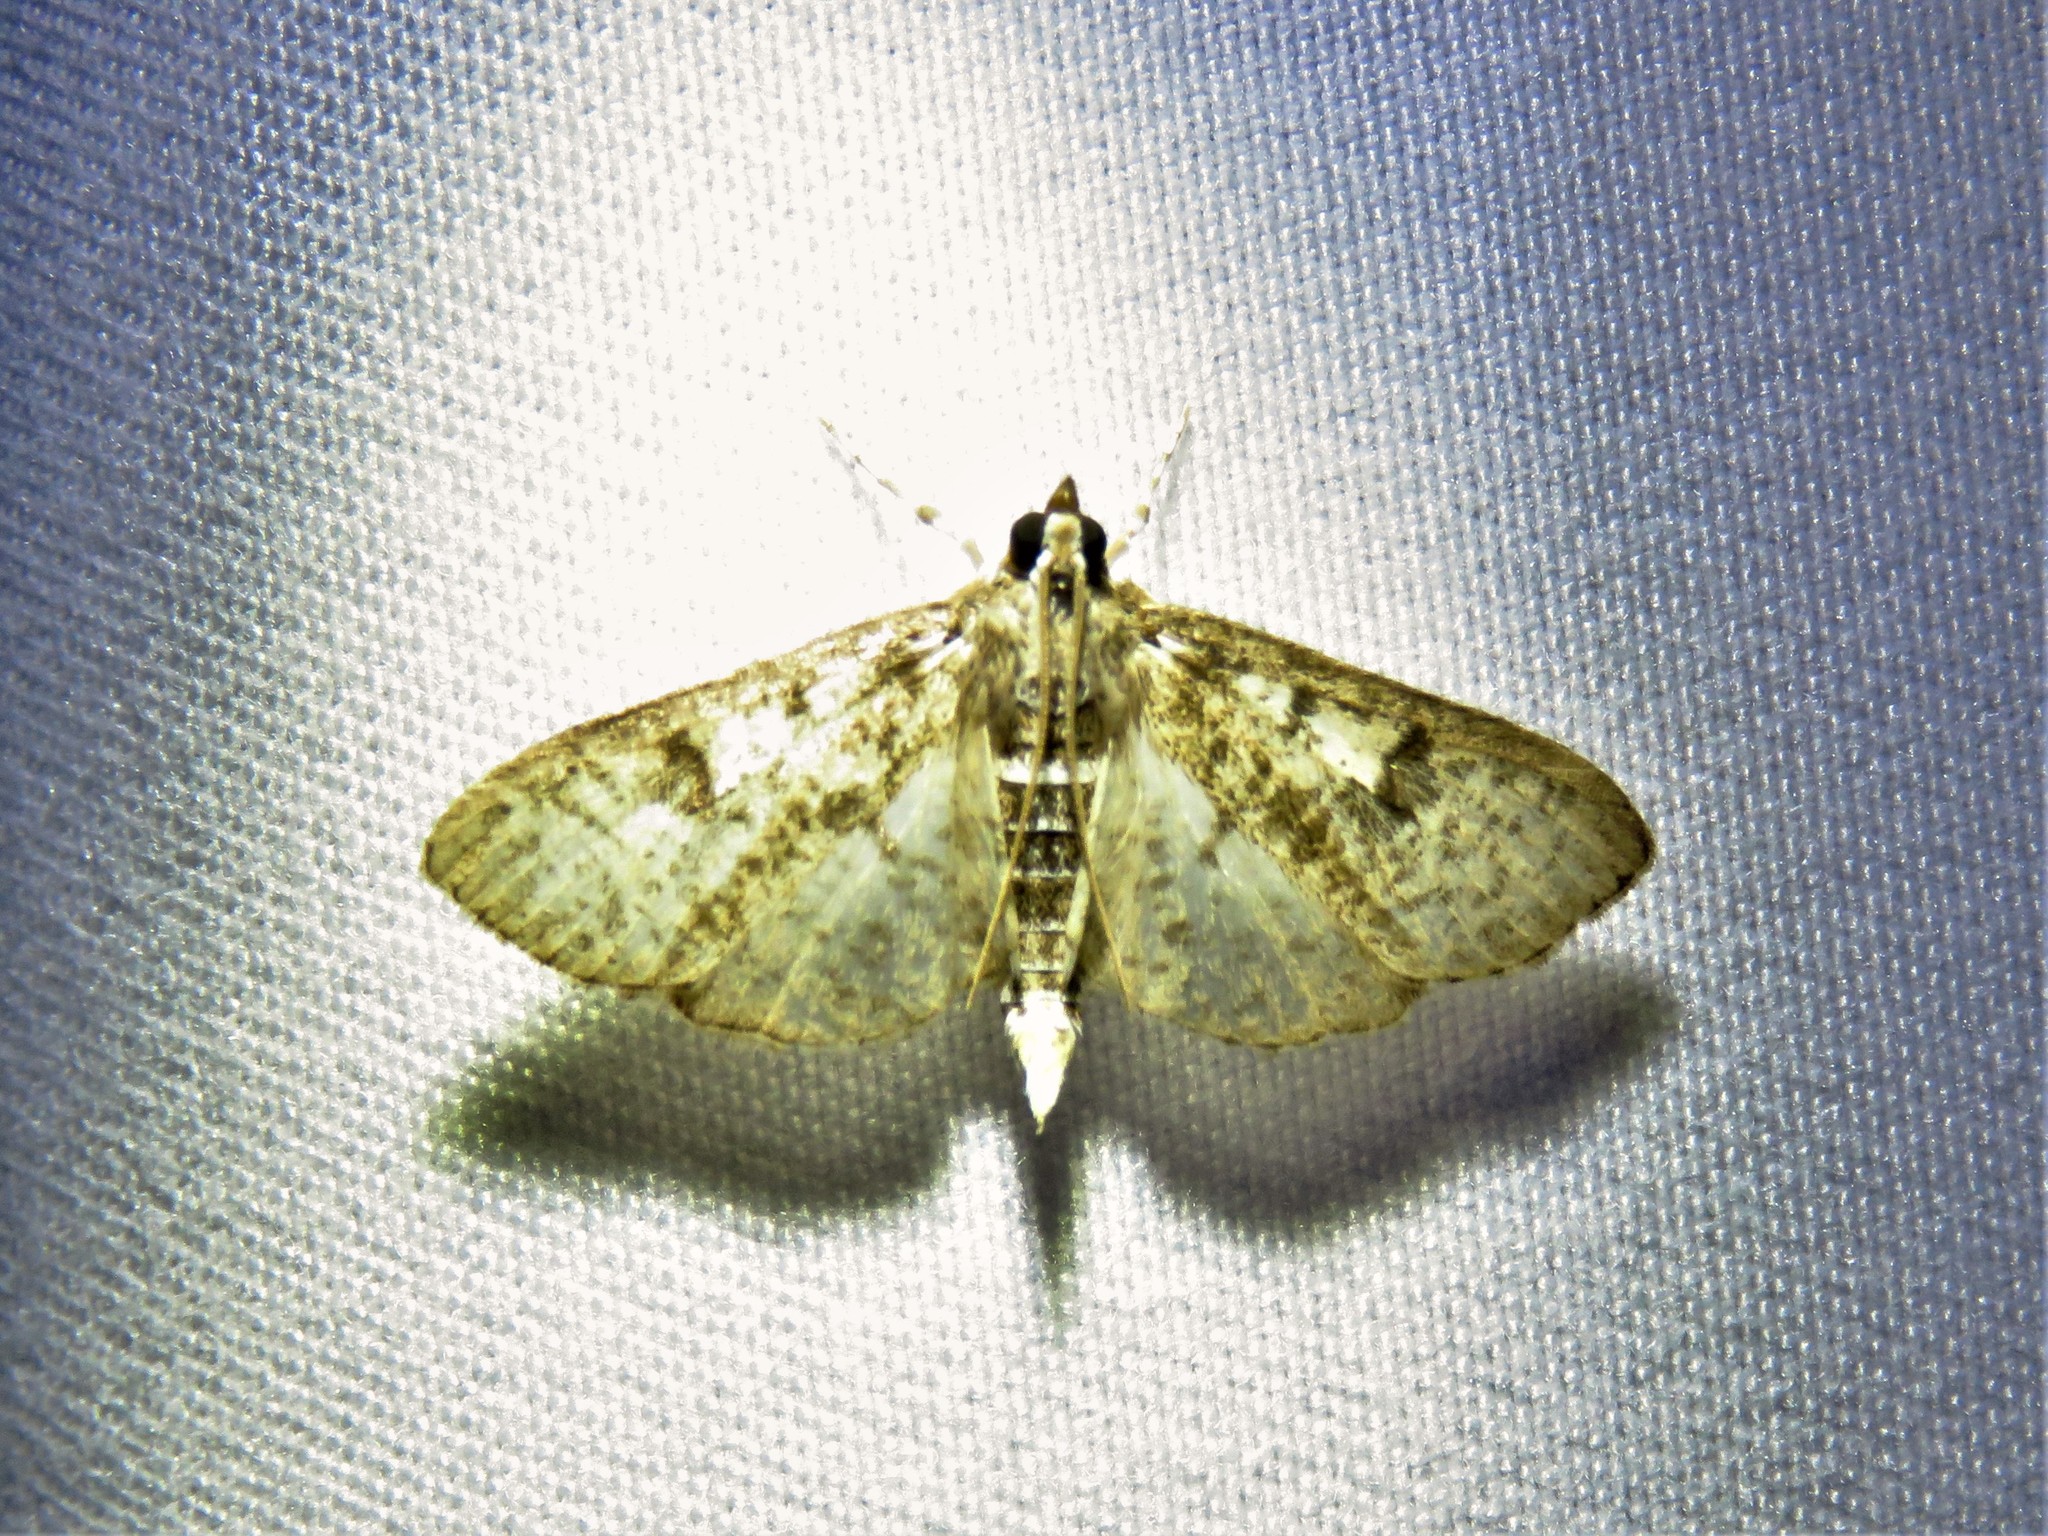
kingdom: Animalia
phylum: Arthropoda
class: Insecta
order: Lepidoptera
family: Crambidae
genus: Palpita
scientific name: Palpita freemanalis
